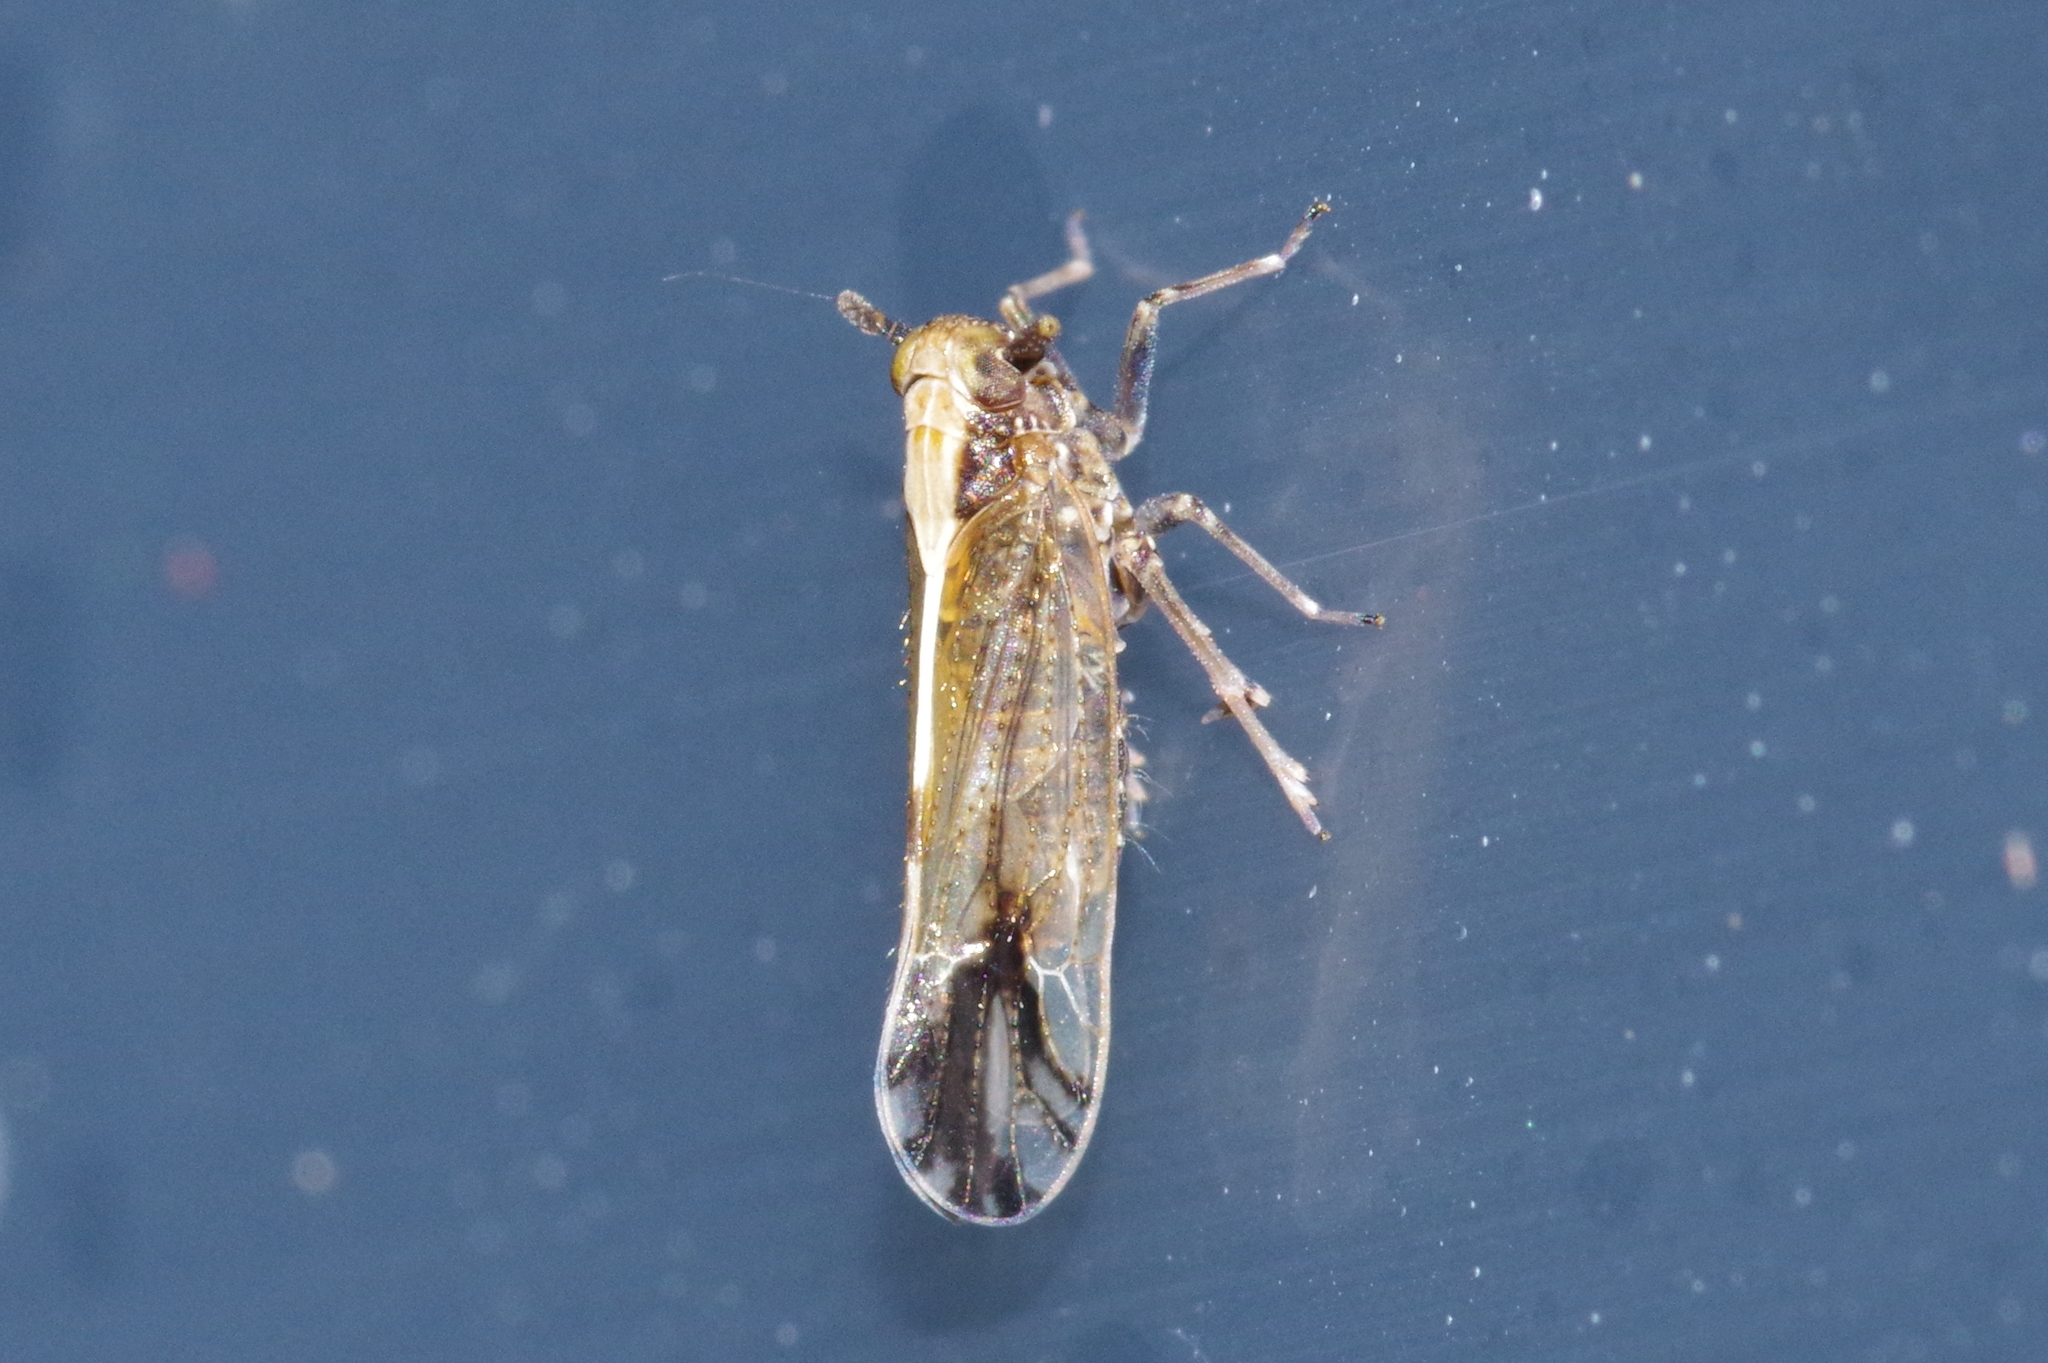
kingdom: Animalia
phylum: Arthropoda
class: Insecta
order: Hemiptera
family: Delphacidae
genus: Perkinsiella
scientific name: Perkinsiella saccharicida
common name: Sugarcane leafhopper
